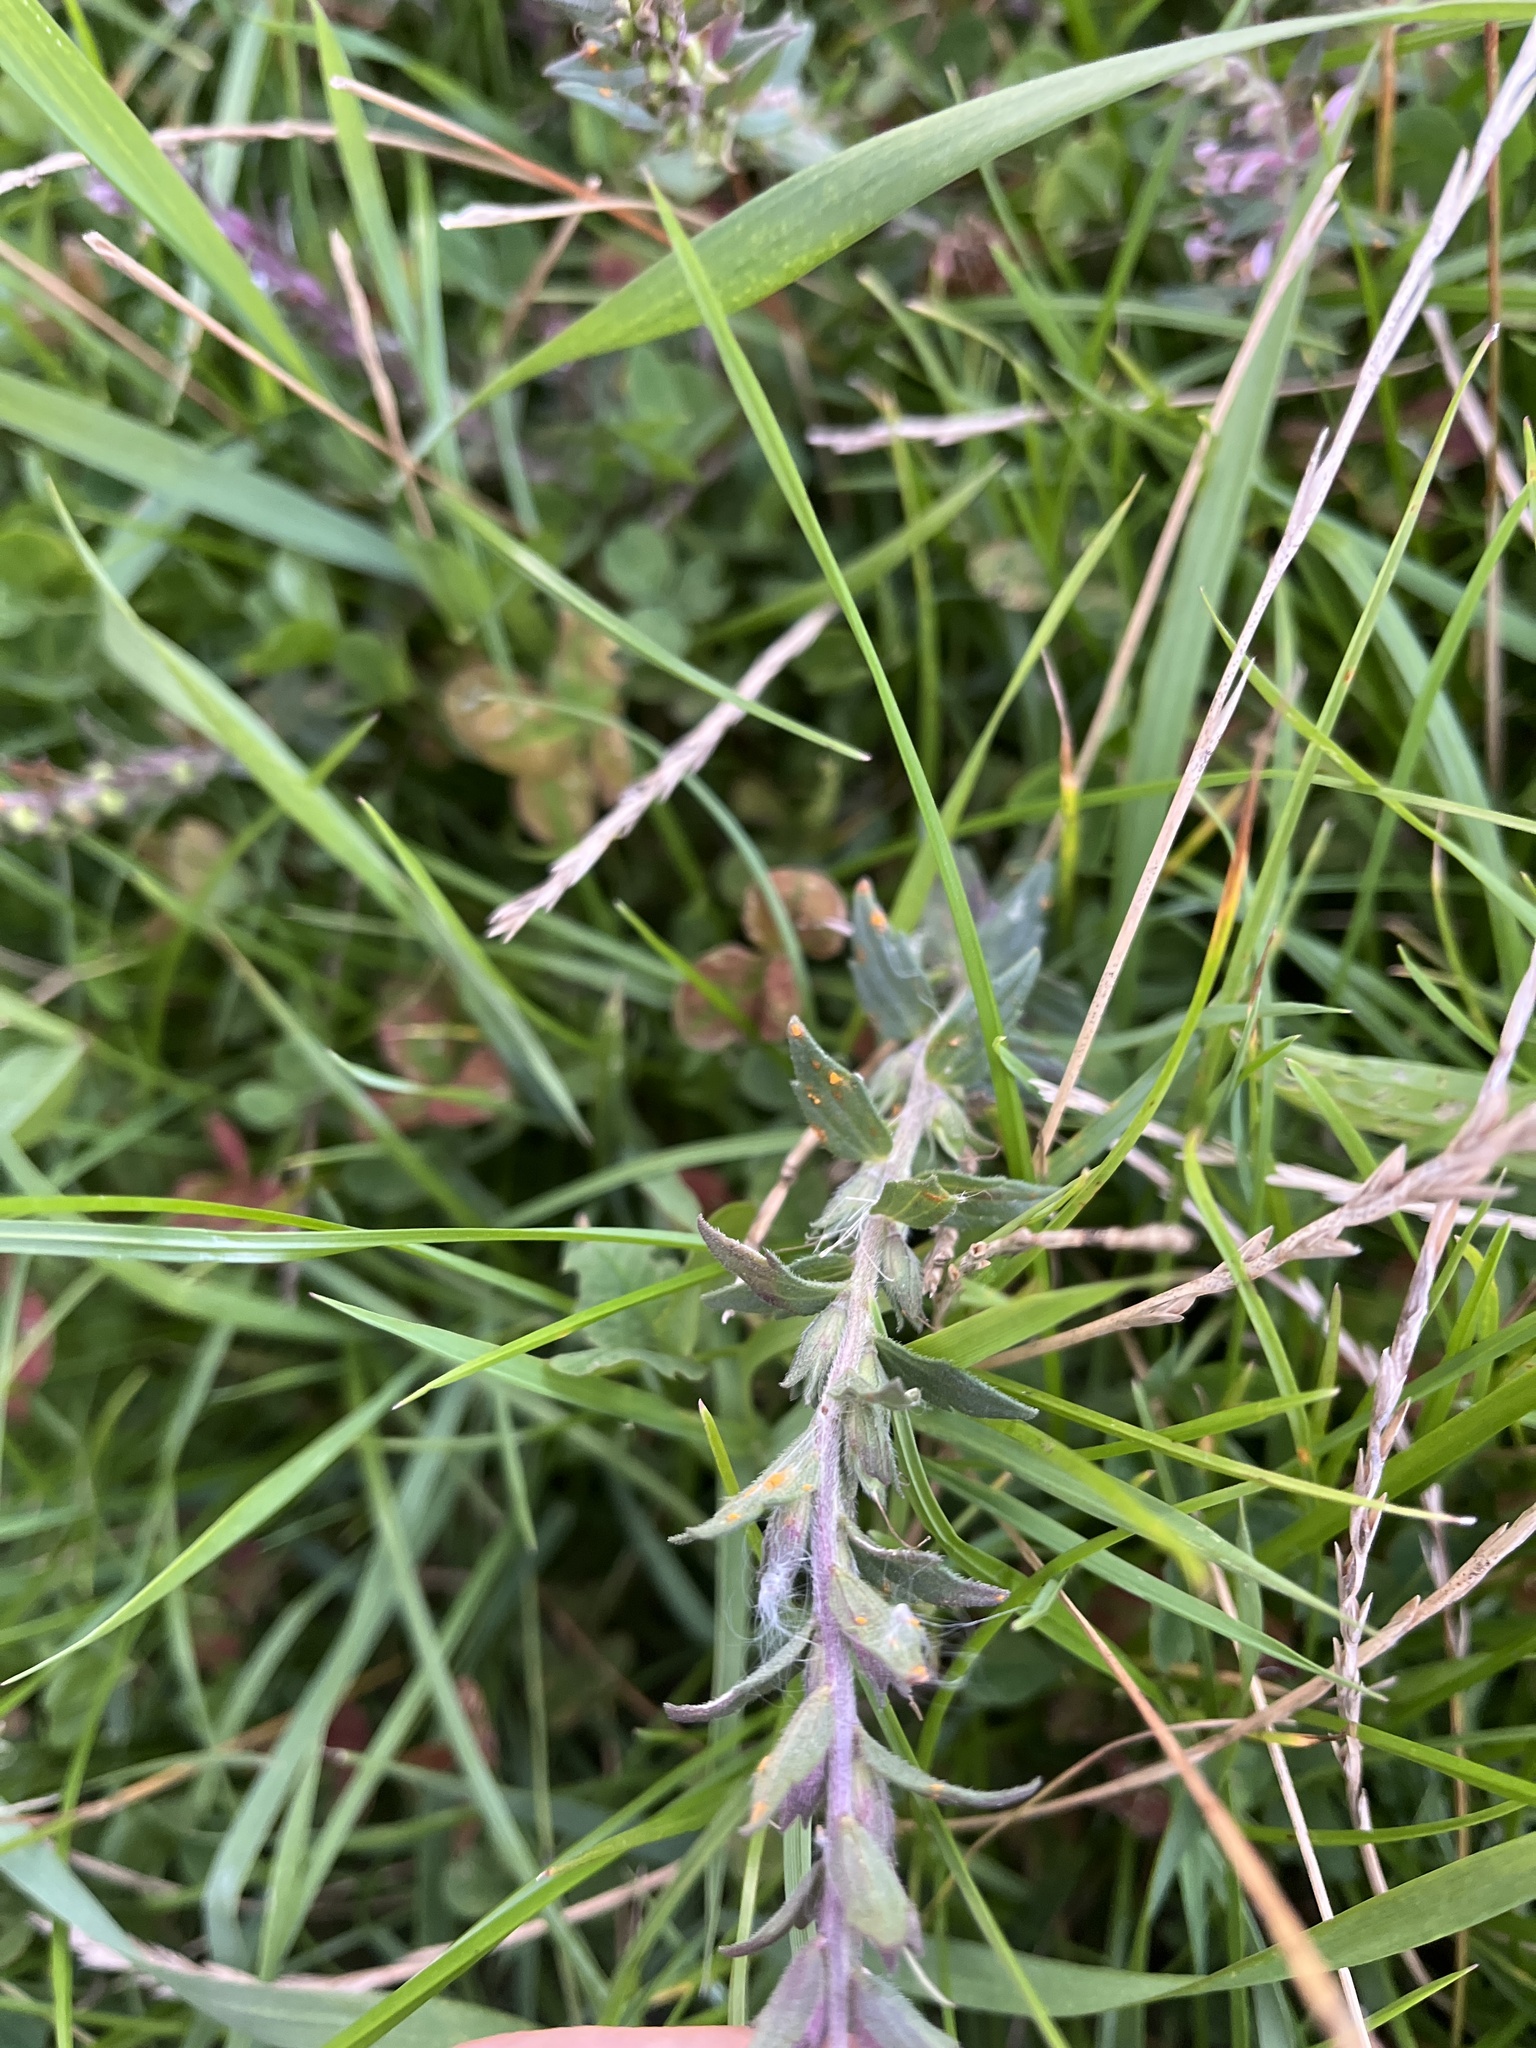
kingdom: Fungi
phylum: Basidiomycota
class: Pucciniomycetes
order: Pucciniales
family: Coleosporiaceae
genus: Coleosporium
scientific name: Coleosporium euphrasiae
